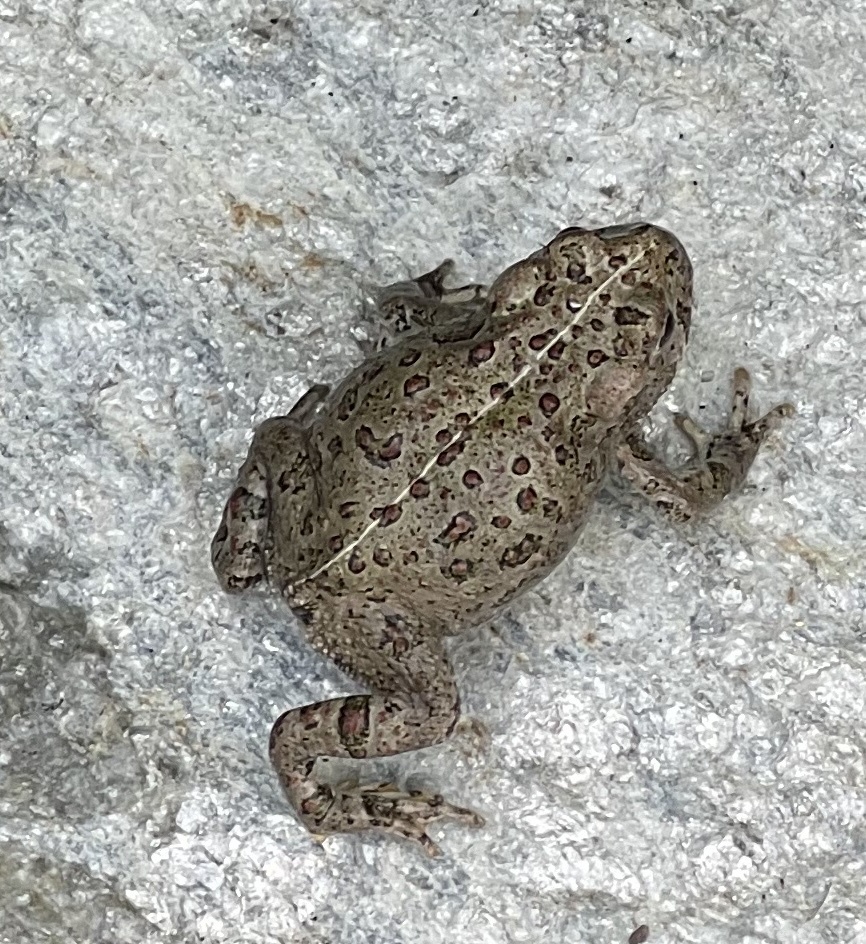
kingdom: Animalia
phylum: Chordata
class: Amphibia
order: Anura
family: Bufonidae
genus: Anaxyrus
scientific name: Anaxyrus boreas
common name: Western toad
